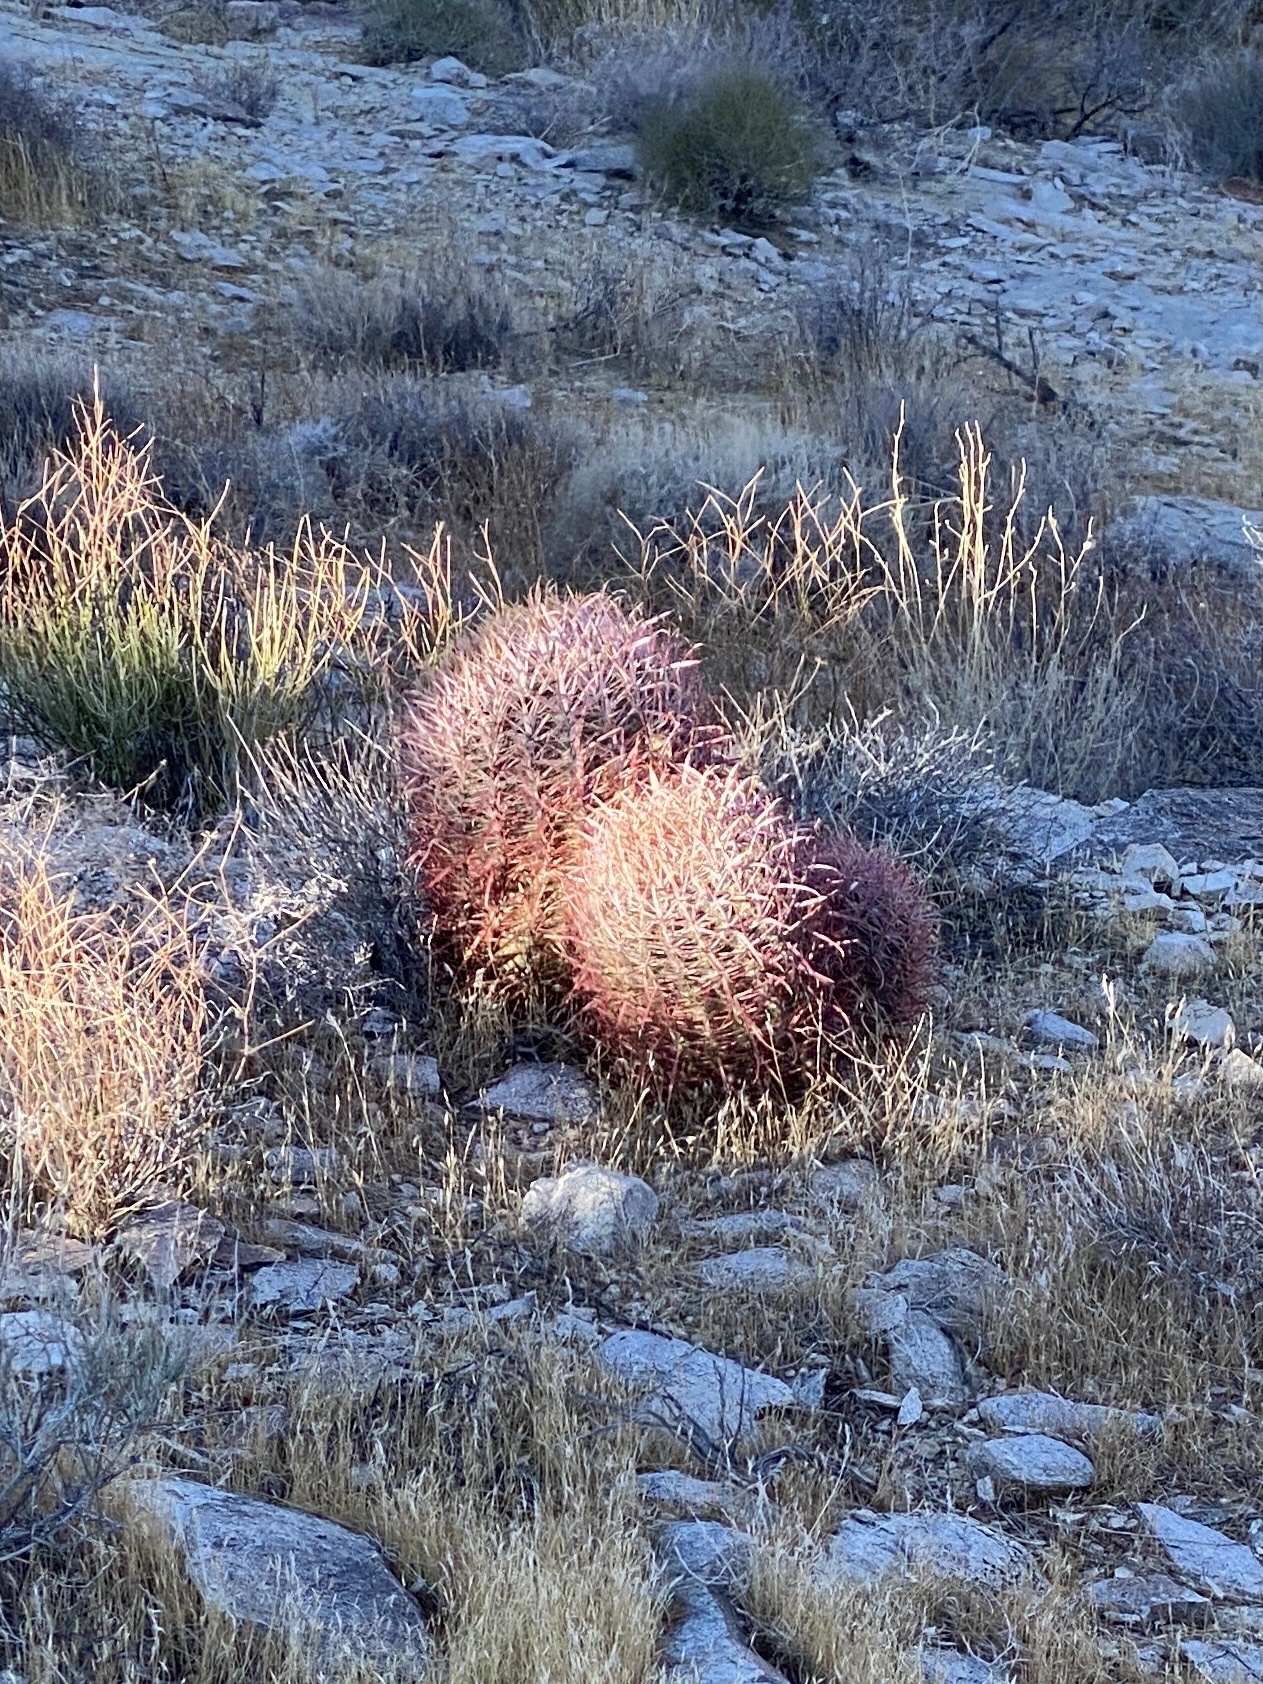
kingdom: Plantae
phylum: Tracheophyta
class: Magnoliopsida
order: Caryophyllales
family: Cactaceae
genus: Ferocactus
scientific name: Ferocactus cylindraceus
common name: California barrel cactus
